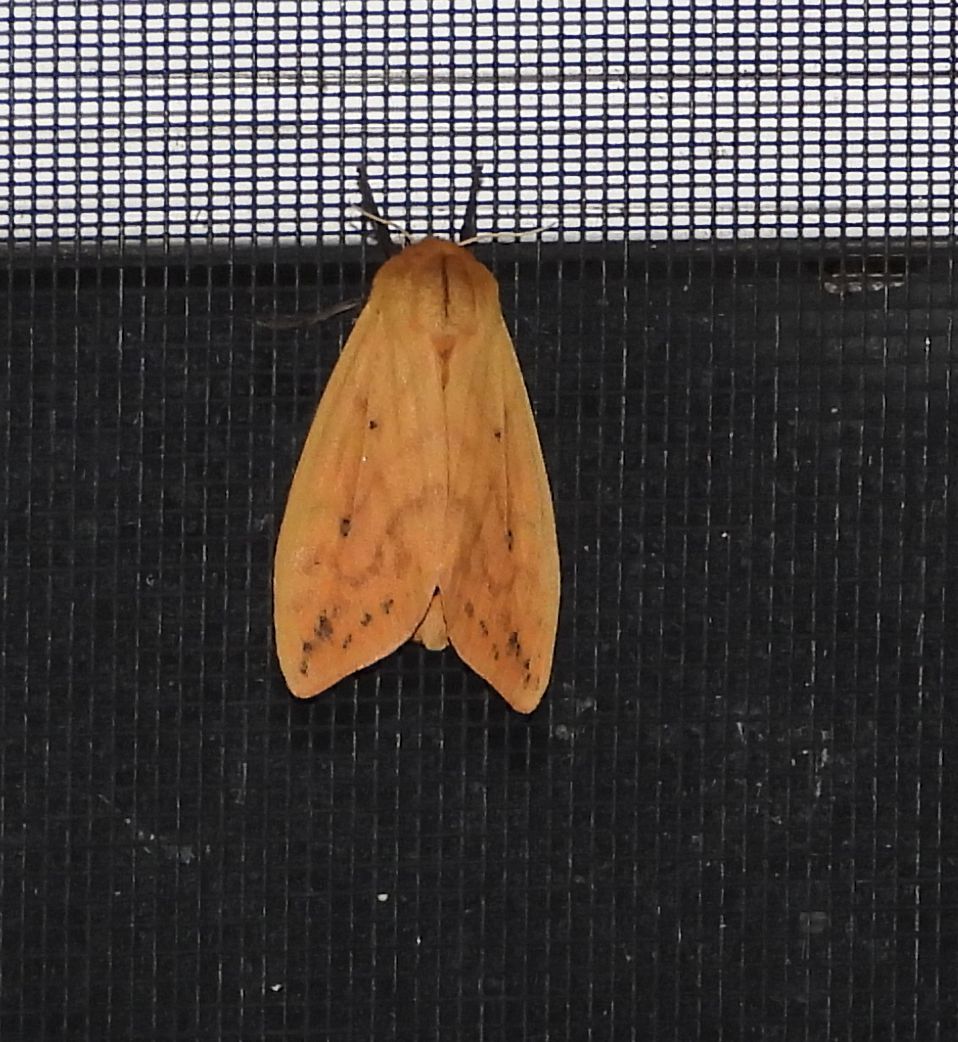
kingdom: Animalia
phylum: Arthropoda
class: Insecta
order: Lepidoptera
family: Erebidae
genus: Pyrrharctia
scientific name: Pyrrharctia isabella
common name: Isabella tiger moth
